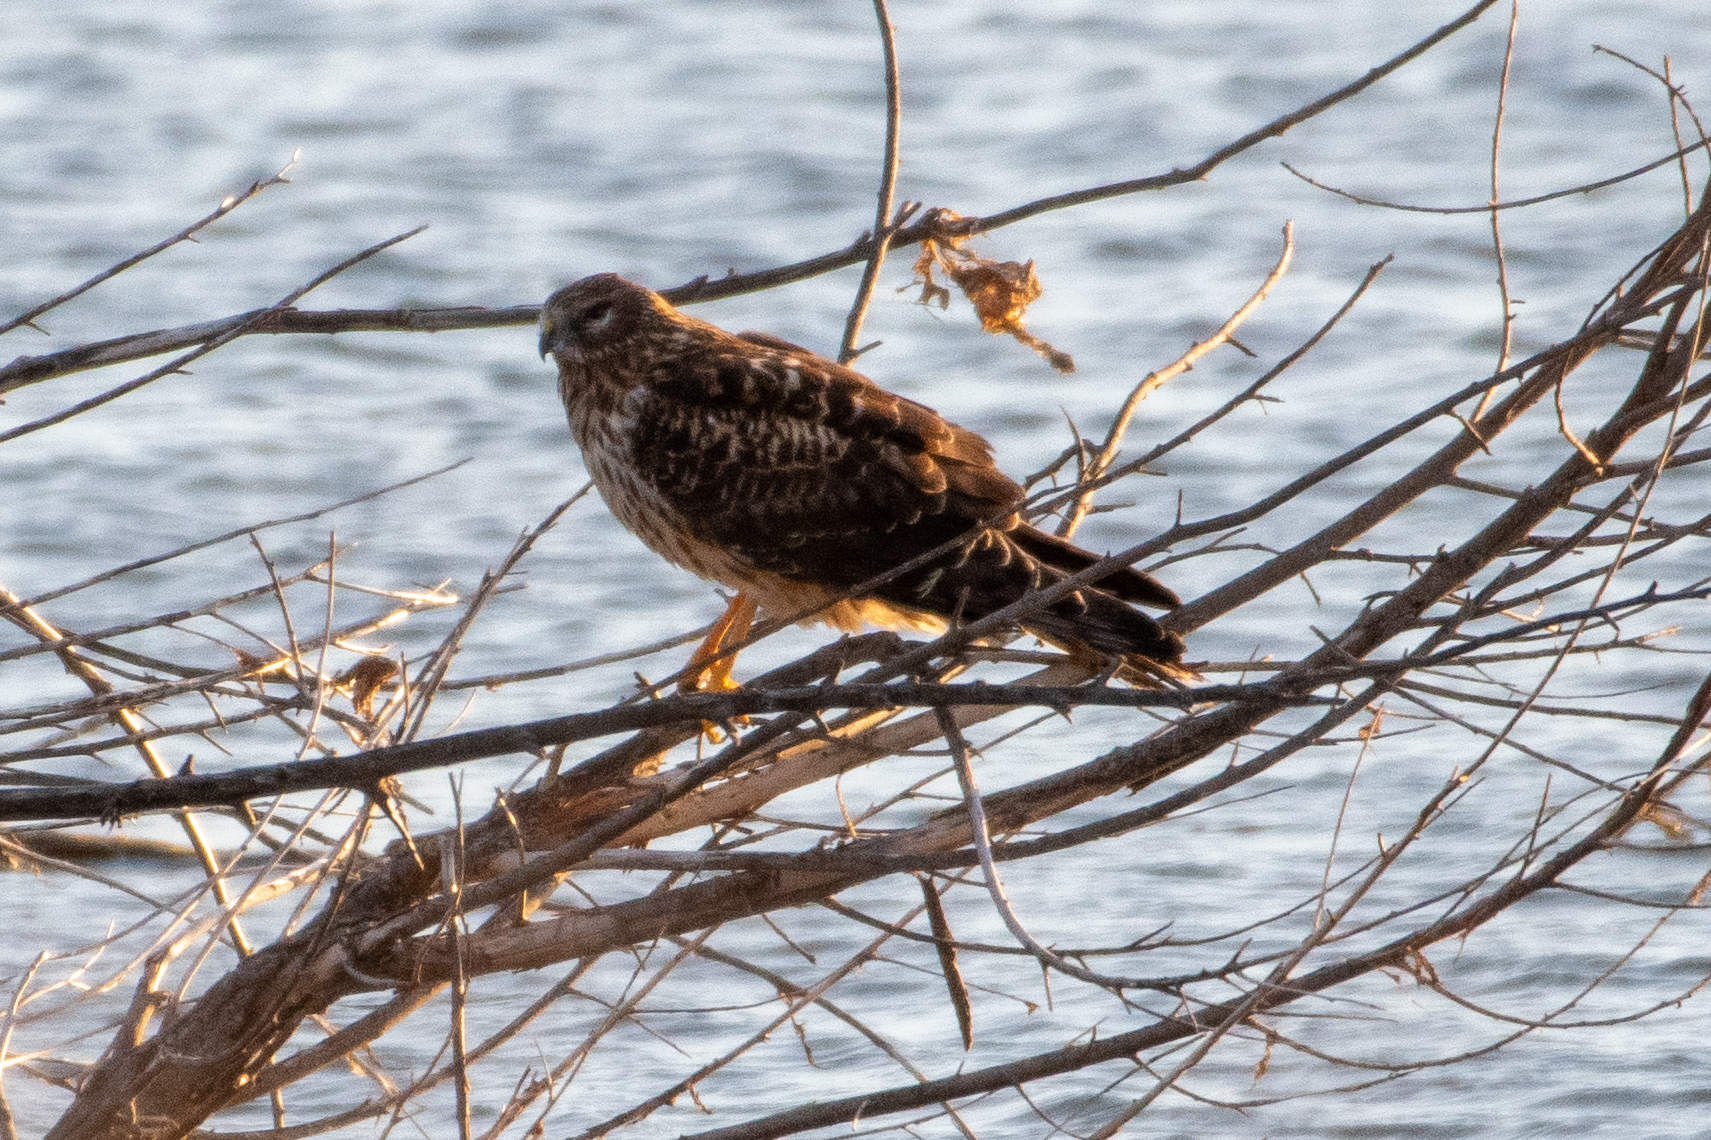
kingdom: Animalia
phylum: Chordata
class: Aves
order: Accipitriformes
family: Accipitridae
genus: Circus
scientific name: Circus cyaneus
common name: Hen harrier
